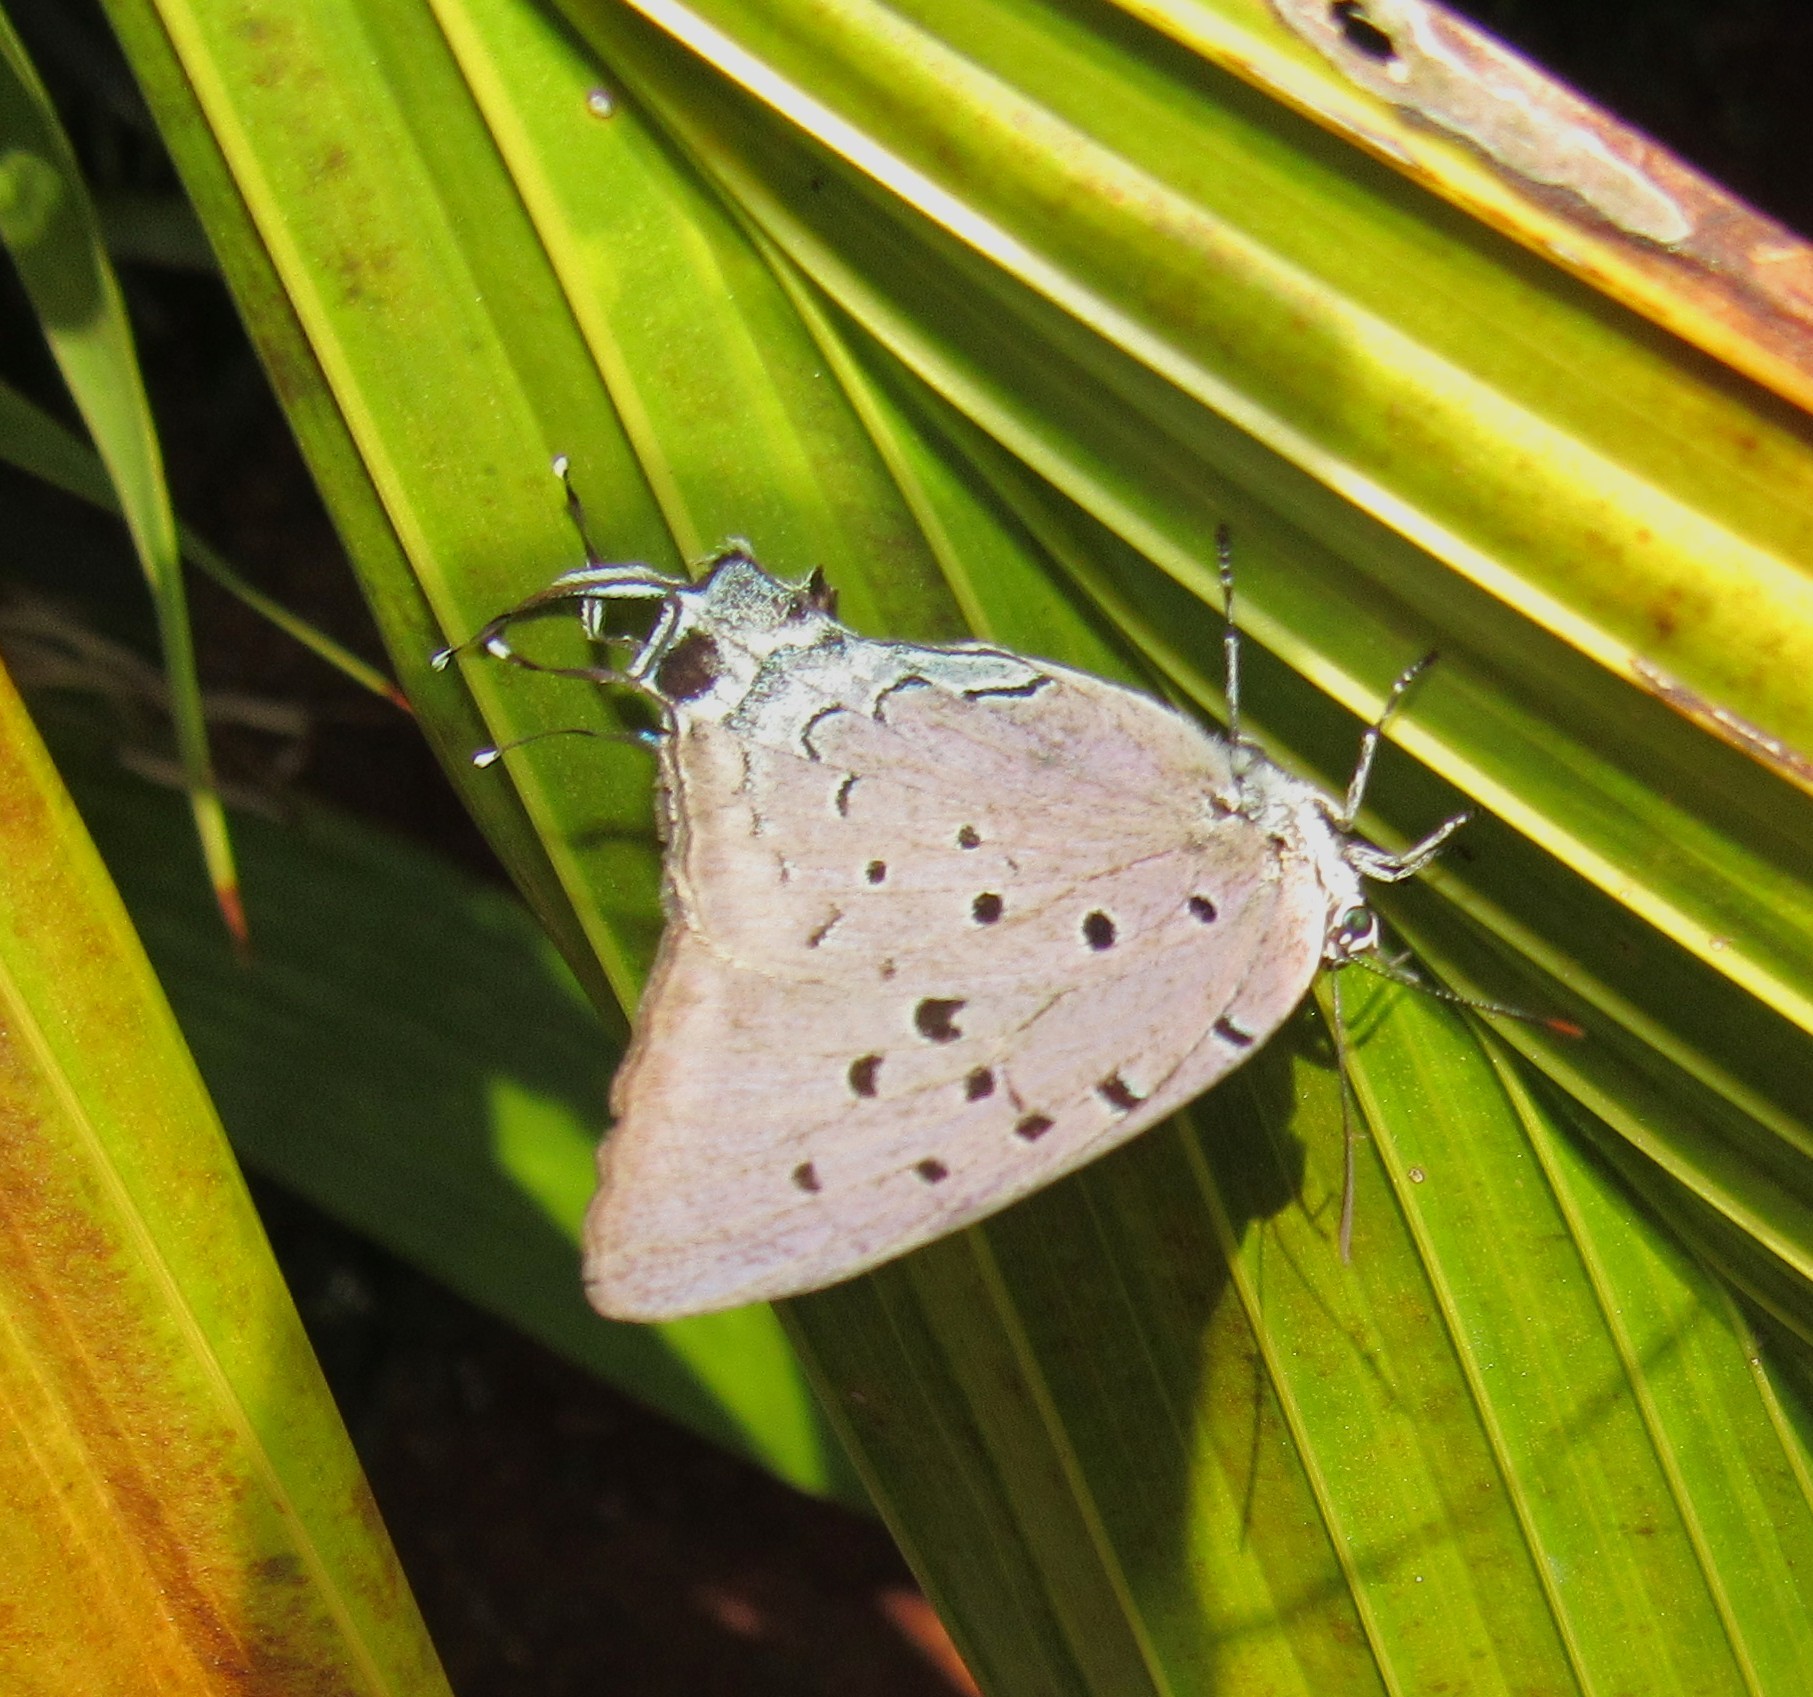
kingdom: Animalia
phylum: Arthropoda
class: Insecta
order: Lepidoptera
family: Lycaenidae
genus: Pseudolycaena
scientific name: Pseudolycaena marsyas
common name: Marsyas hairstreak
